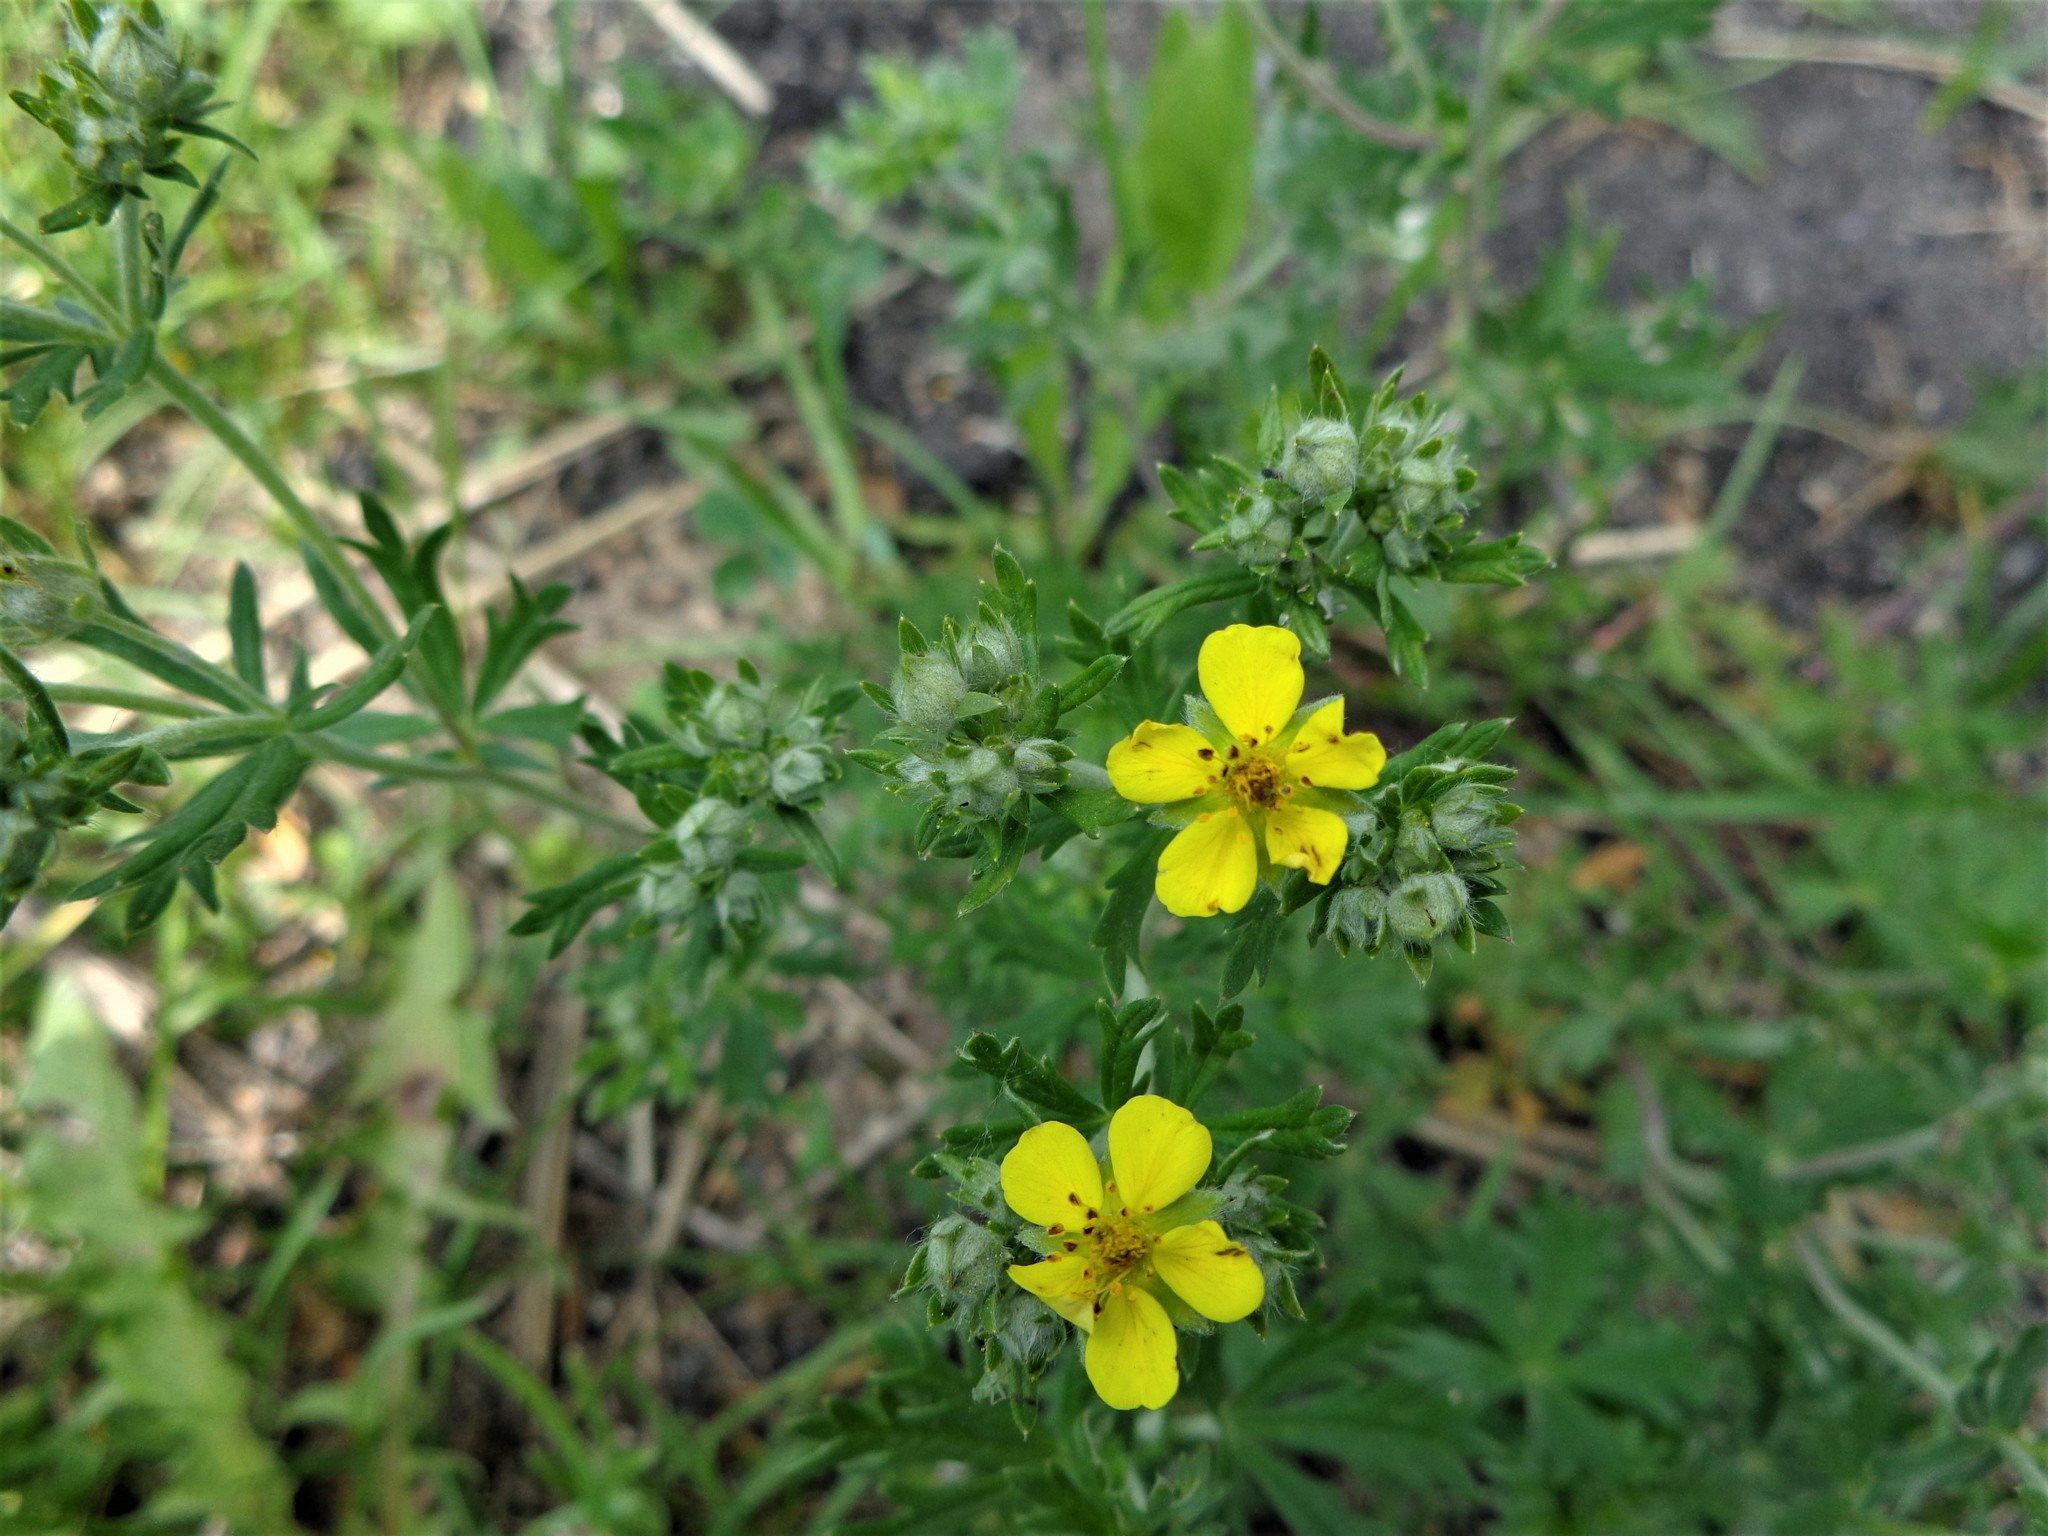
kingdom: Plantae
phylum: Tracheophyta
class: Magnoliopsida
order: Rosales
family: Rosaceae
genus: Potentilla
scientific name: Potentilla argentea
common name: Hoary cinquefoil
